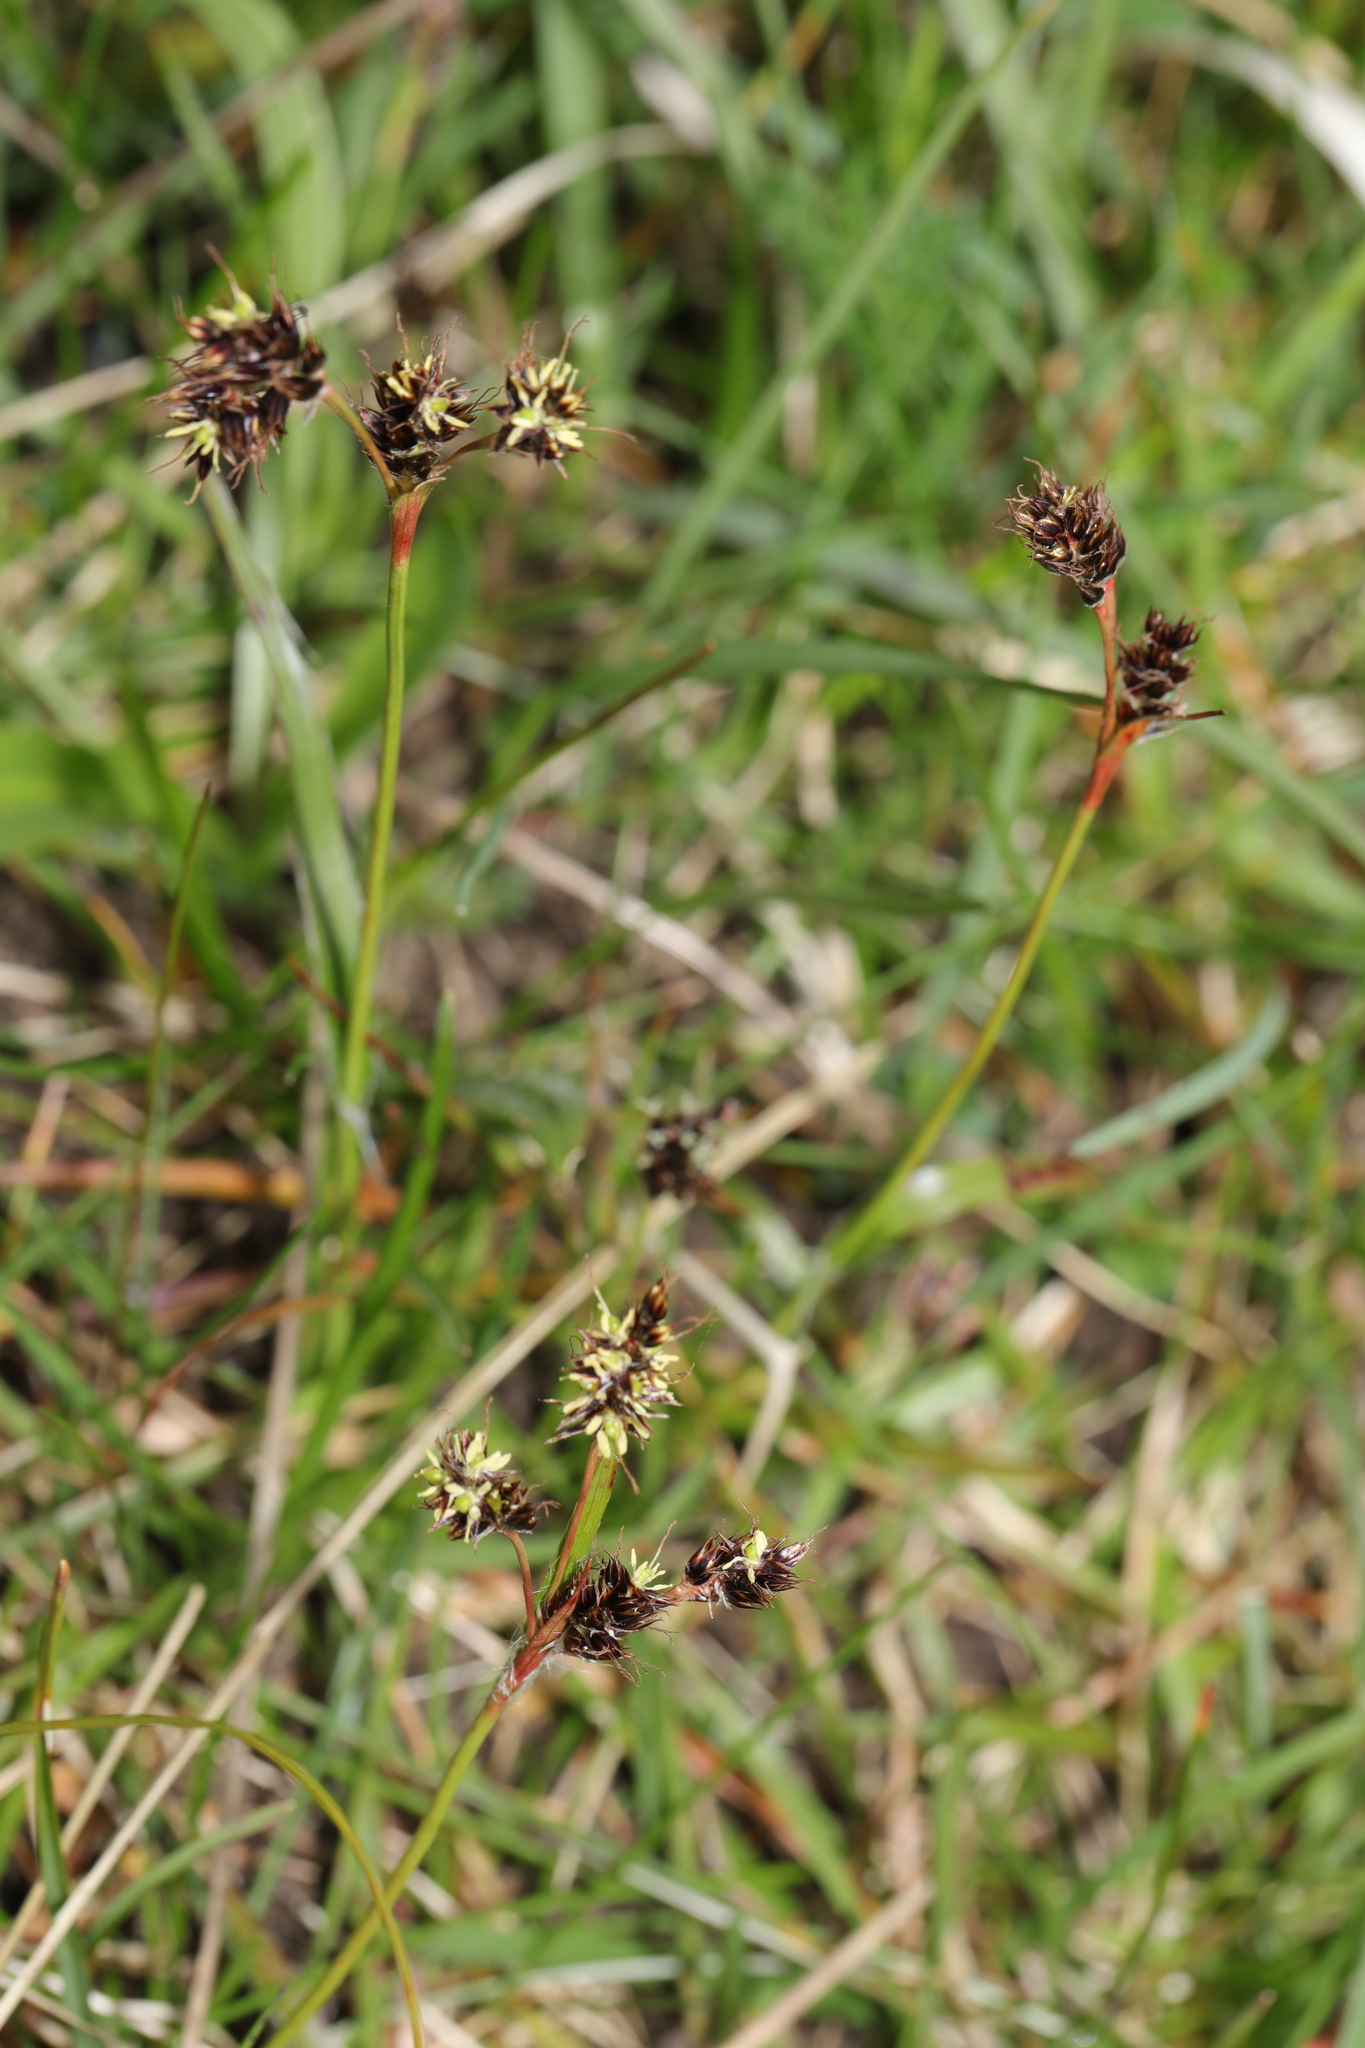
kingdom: Plantae
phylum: Tracheophyta
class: Liliopsida
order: Poales
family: Juncaceae
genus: Luzula
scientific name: Luzula campestris
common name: Field wood-rush
